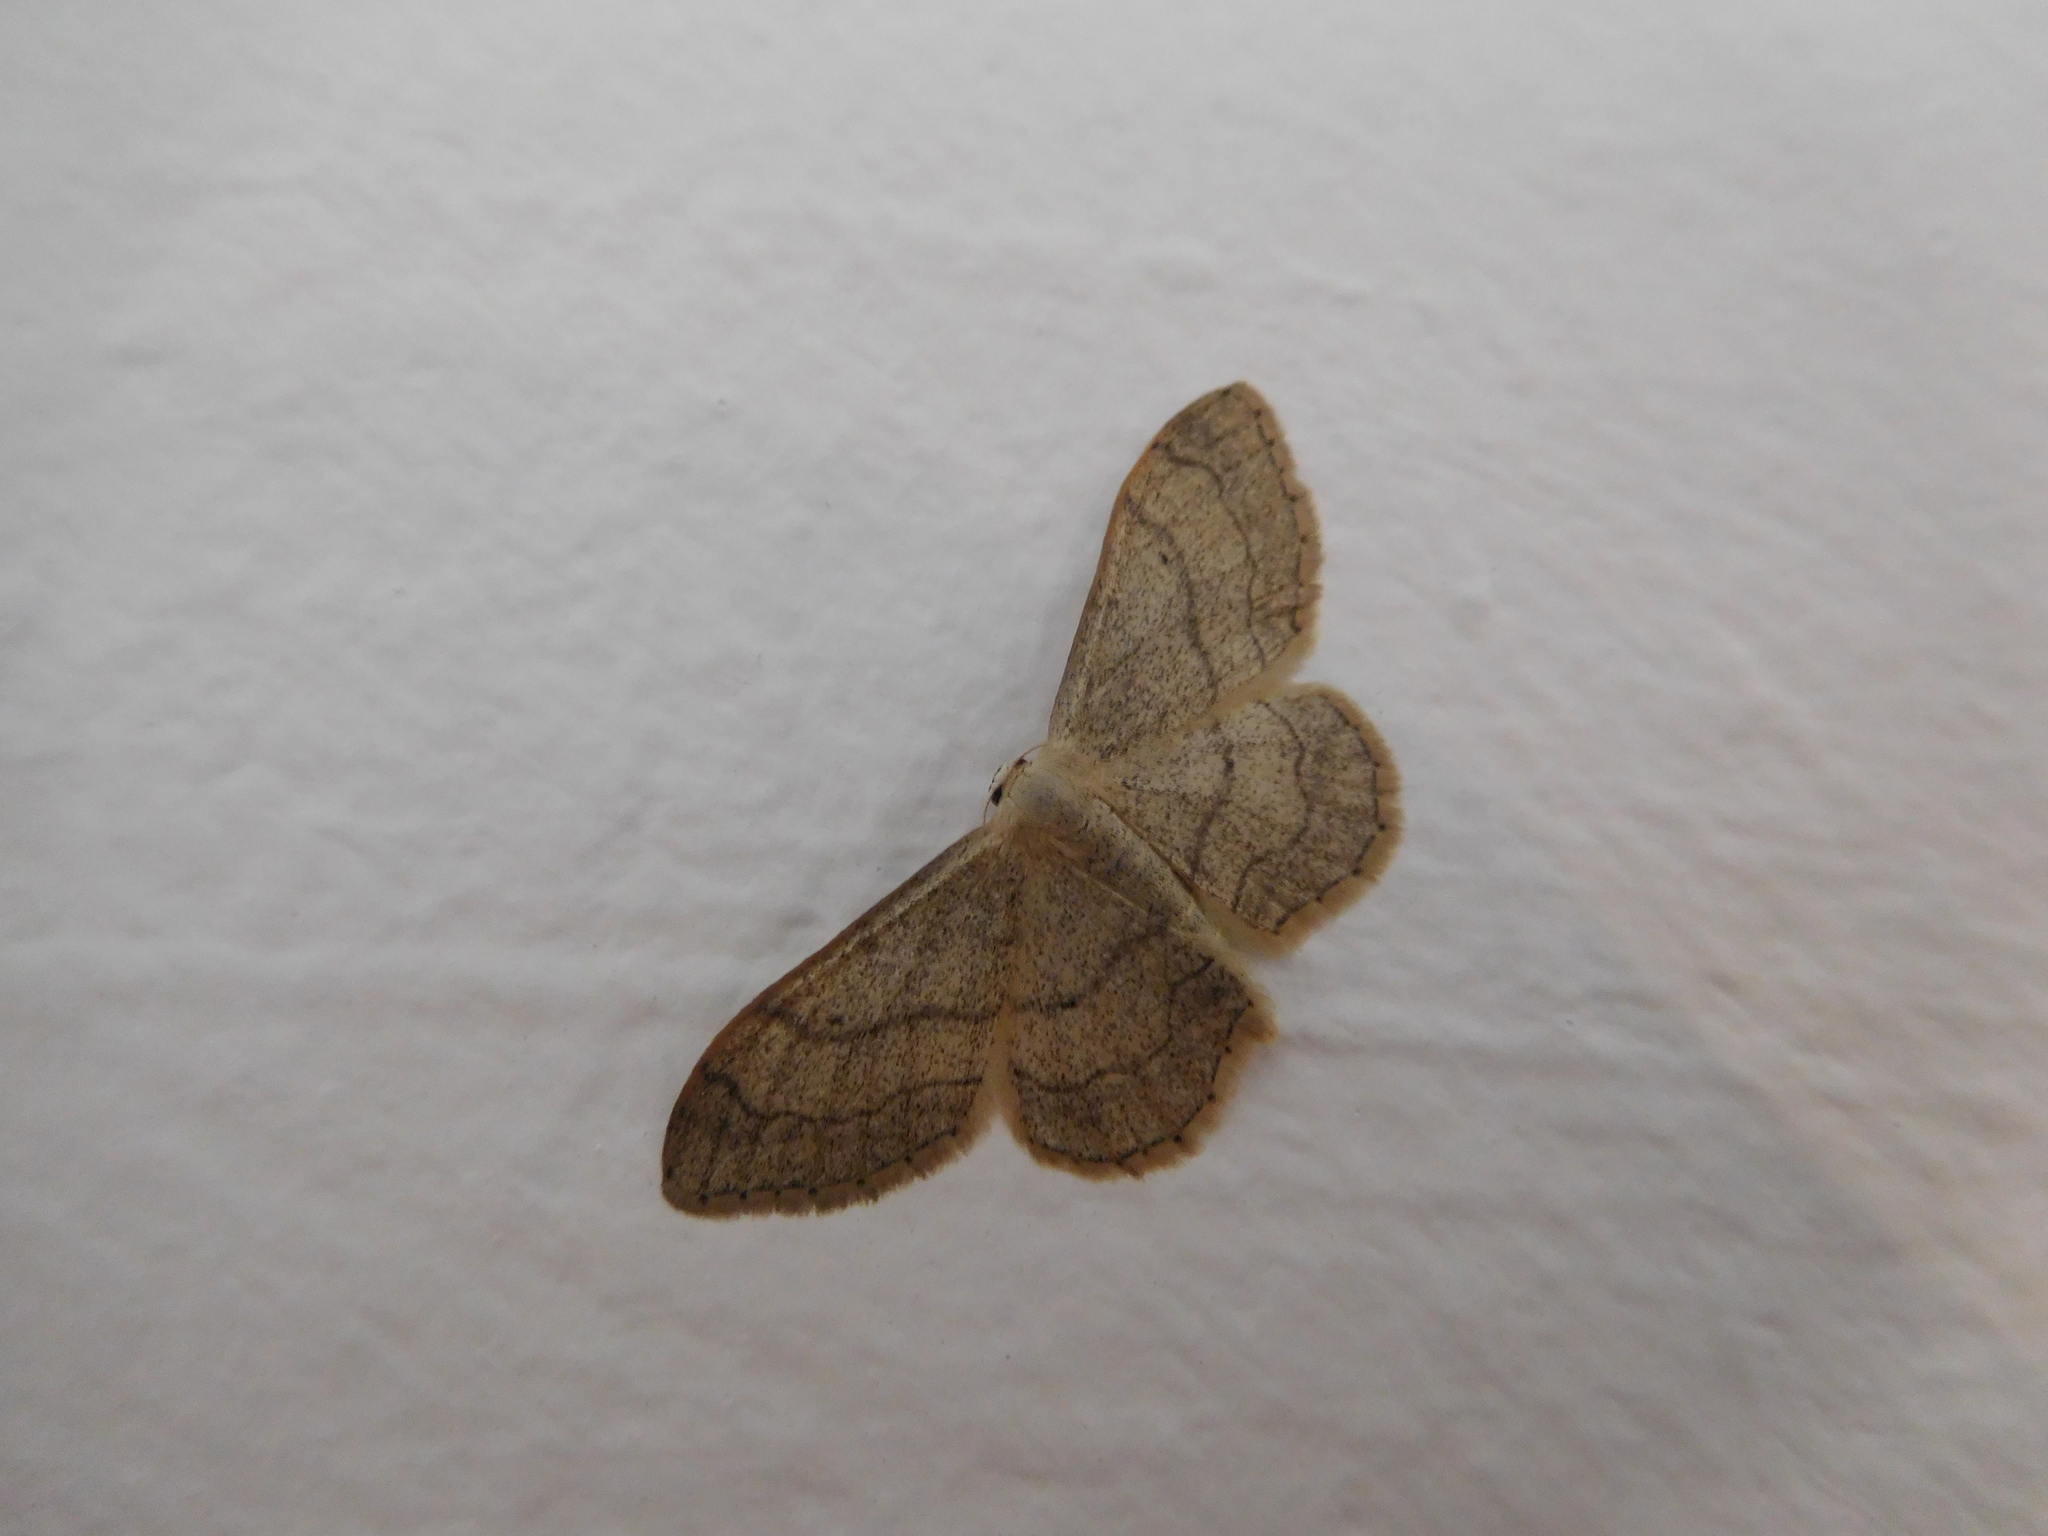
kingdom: Animalia
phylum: Arthropoda
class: Insecta
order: Lepidoptera
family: Geometridae
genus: Idaea
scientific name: Idaea aversata
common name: Riband wave
